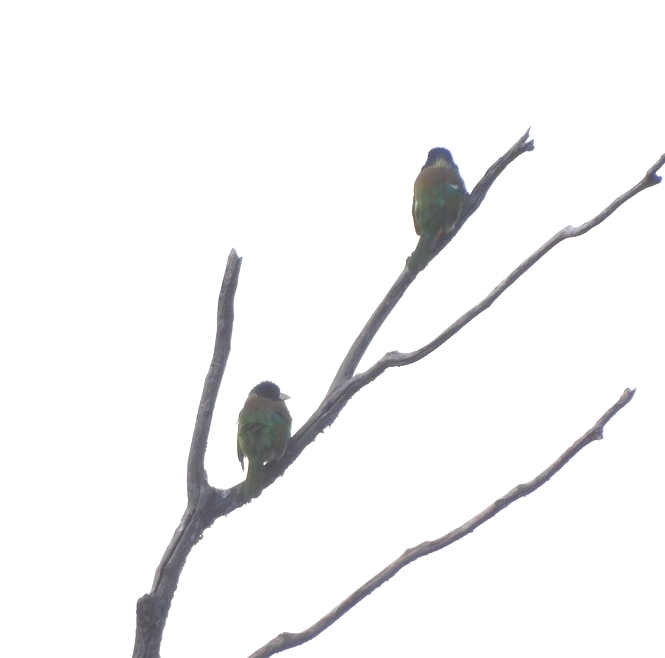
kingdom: Animalia
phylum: Chordata
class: Aves
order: Piciformes
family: Megalaimidae
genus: Psilopogon
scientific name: Psilopogon virens
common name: Great barbet
